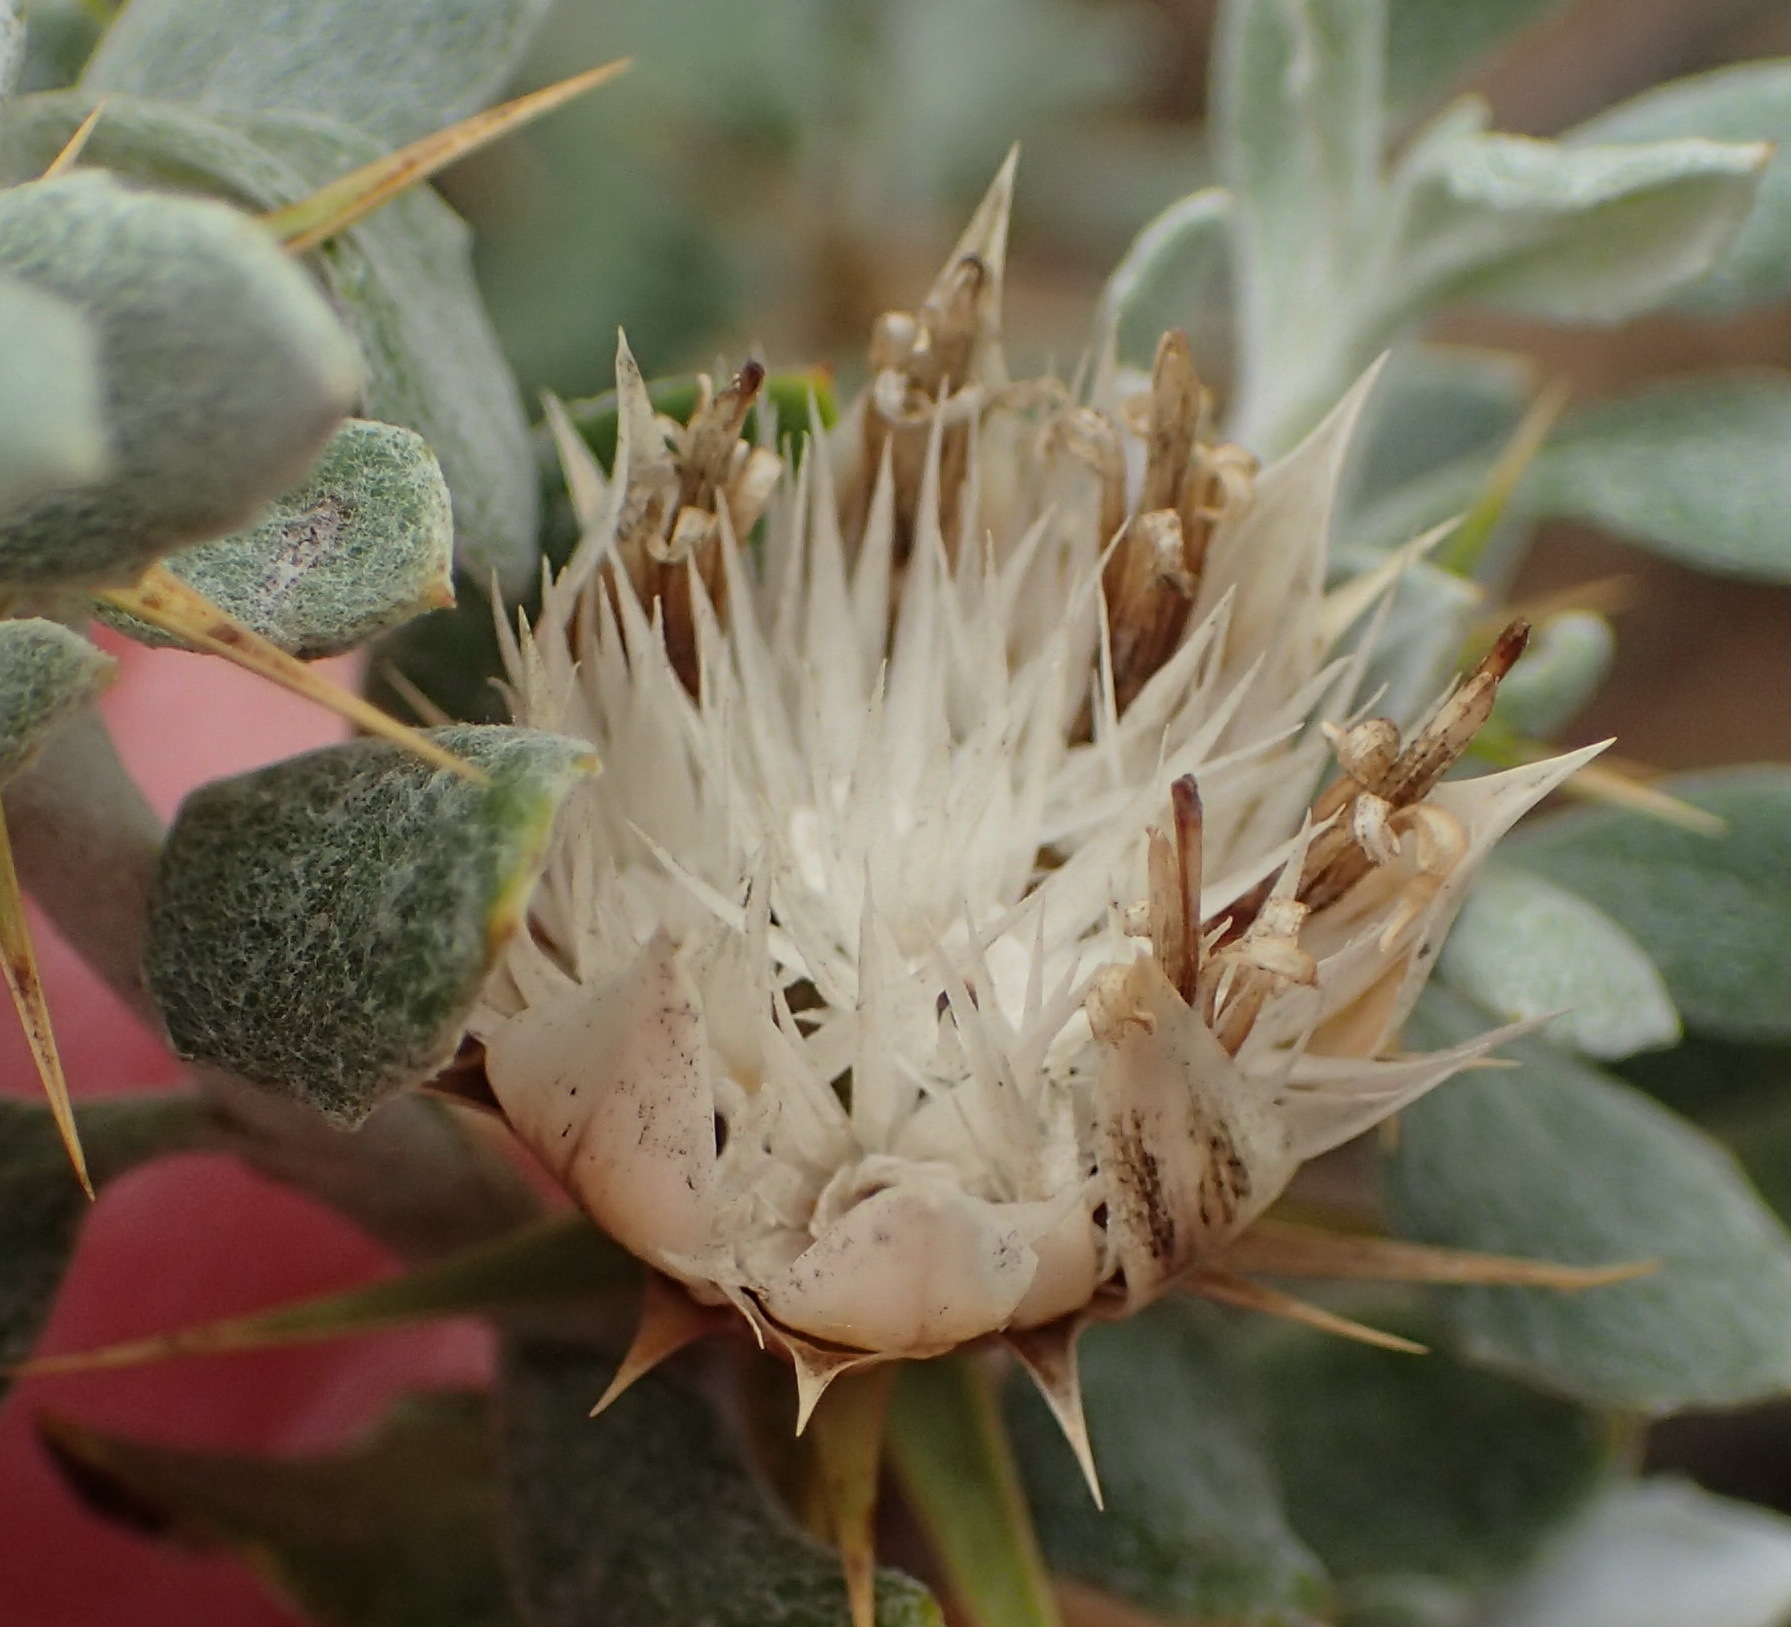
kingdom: Plantae
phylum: Tracheophyta
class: Magnoliopsida
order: Asterales
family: Asteraceae
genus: Macledium
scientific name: Macledium spinosum
